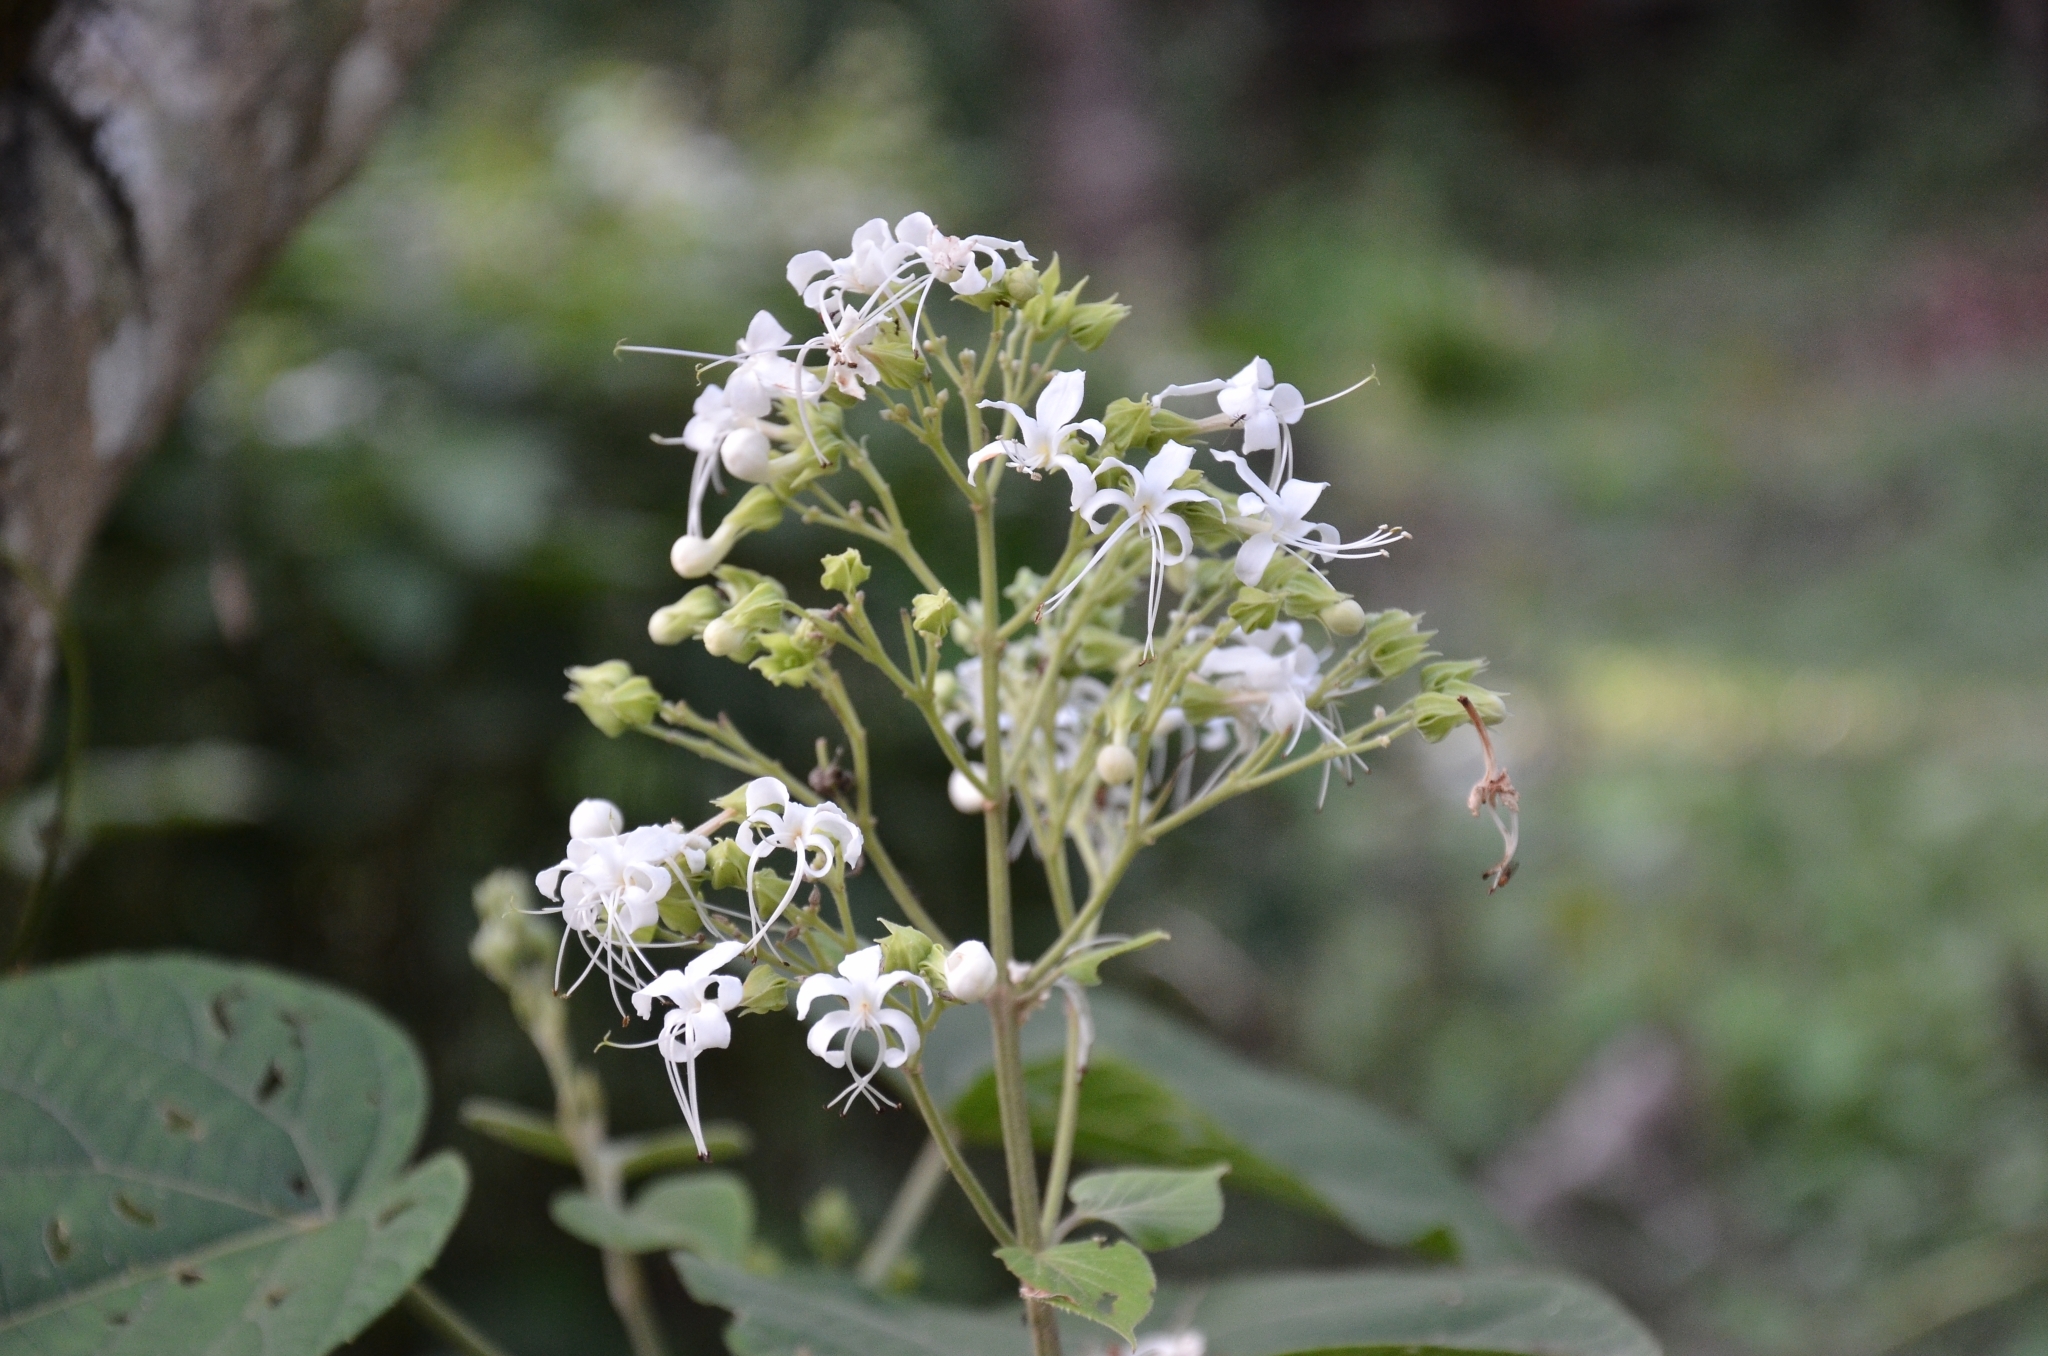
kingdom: Plantae
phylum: Tracheophyta
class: Magnoliopsida
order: Lamiales
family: Lamiaceae
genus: Clerodendrum
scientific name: Clerodendrum infortunatum
